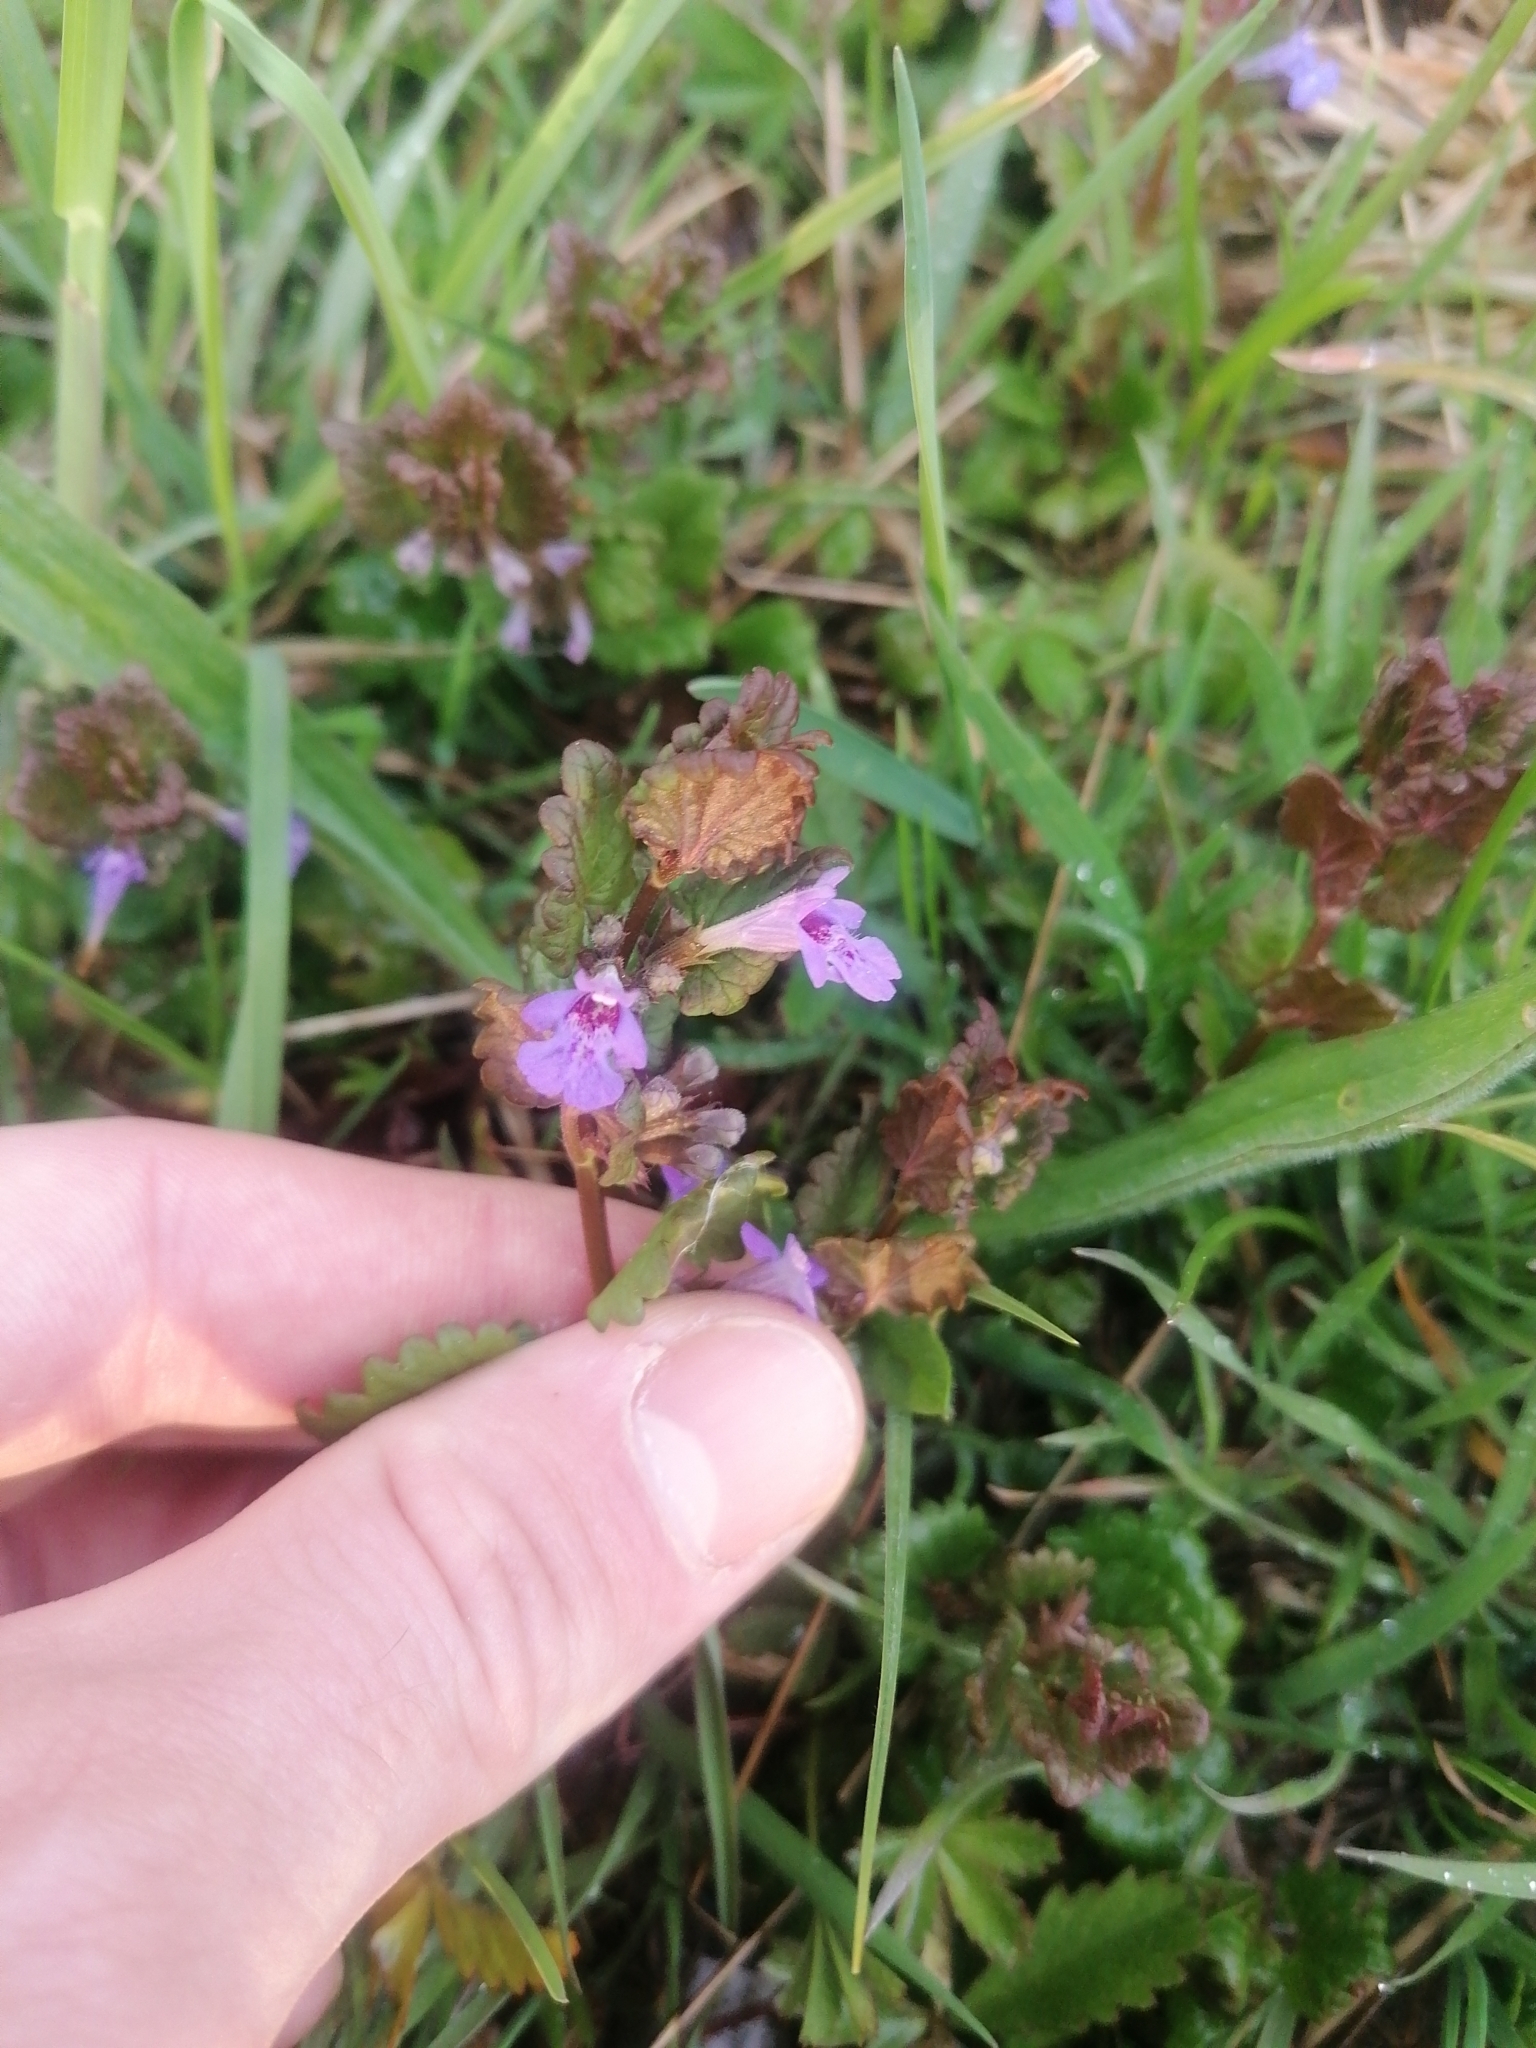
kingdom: Plantae
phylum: Tracheophyta
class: Magnoliopsida
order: Lamiales
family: Lamiaceae
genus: Glechoma
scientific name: Glechoma hederacea
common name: Ground ivy
